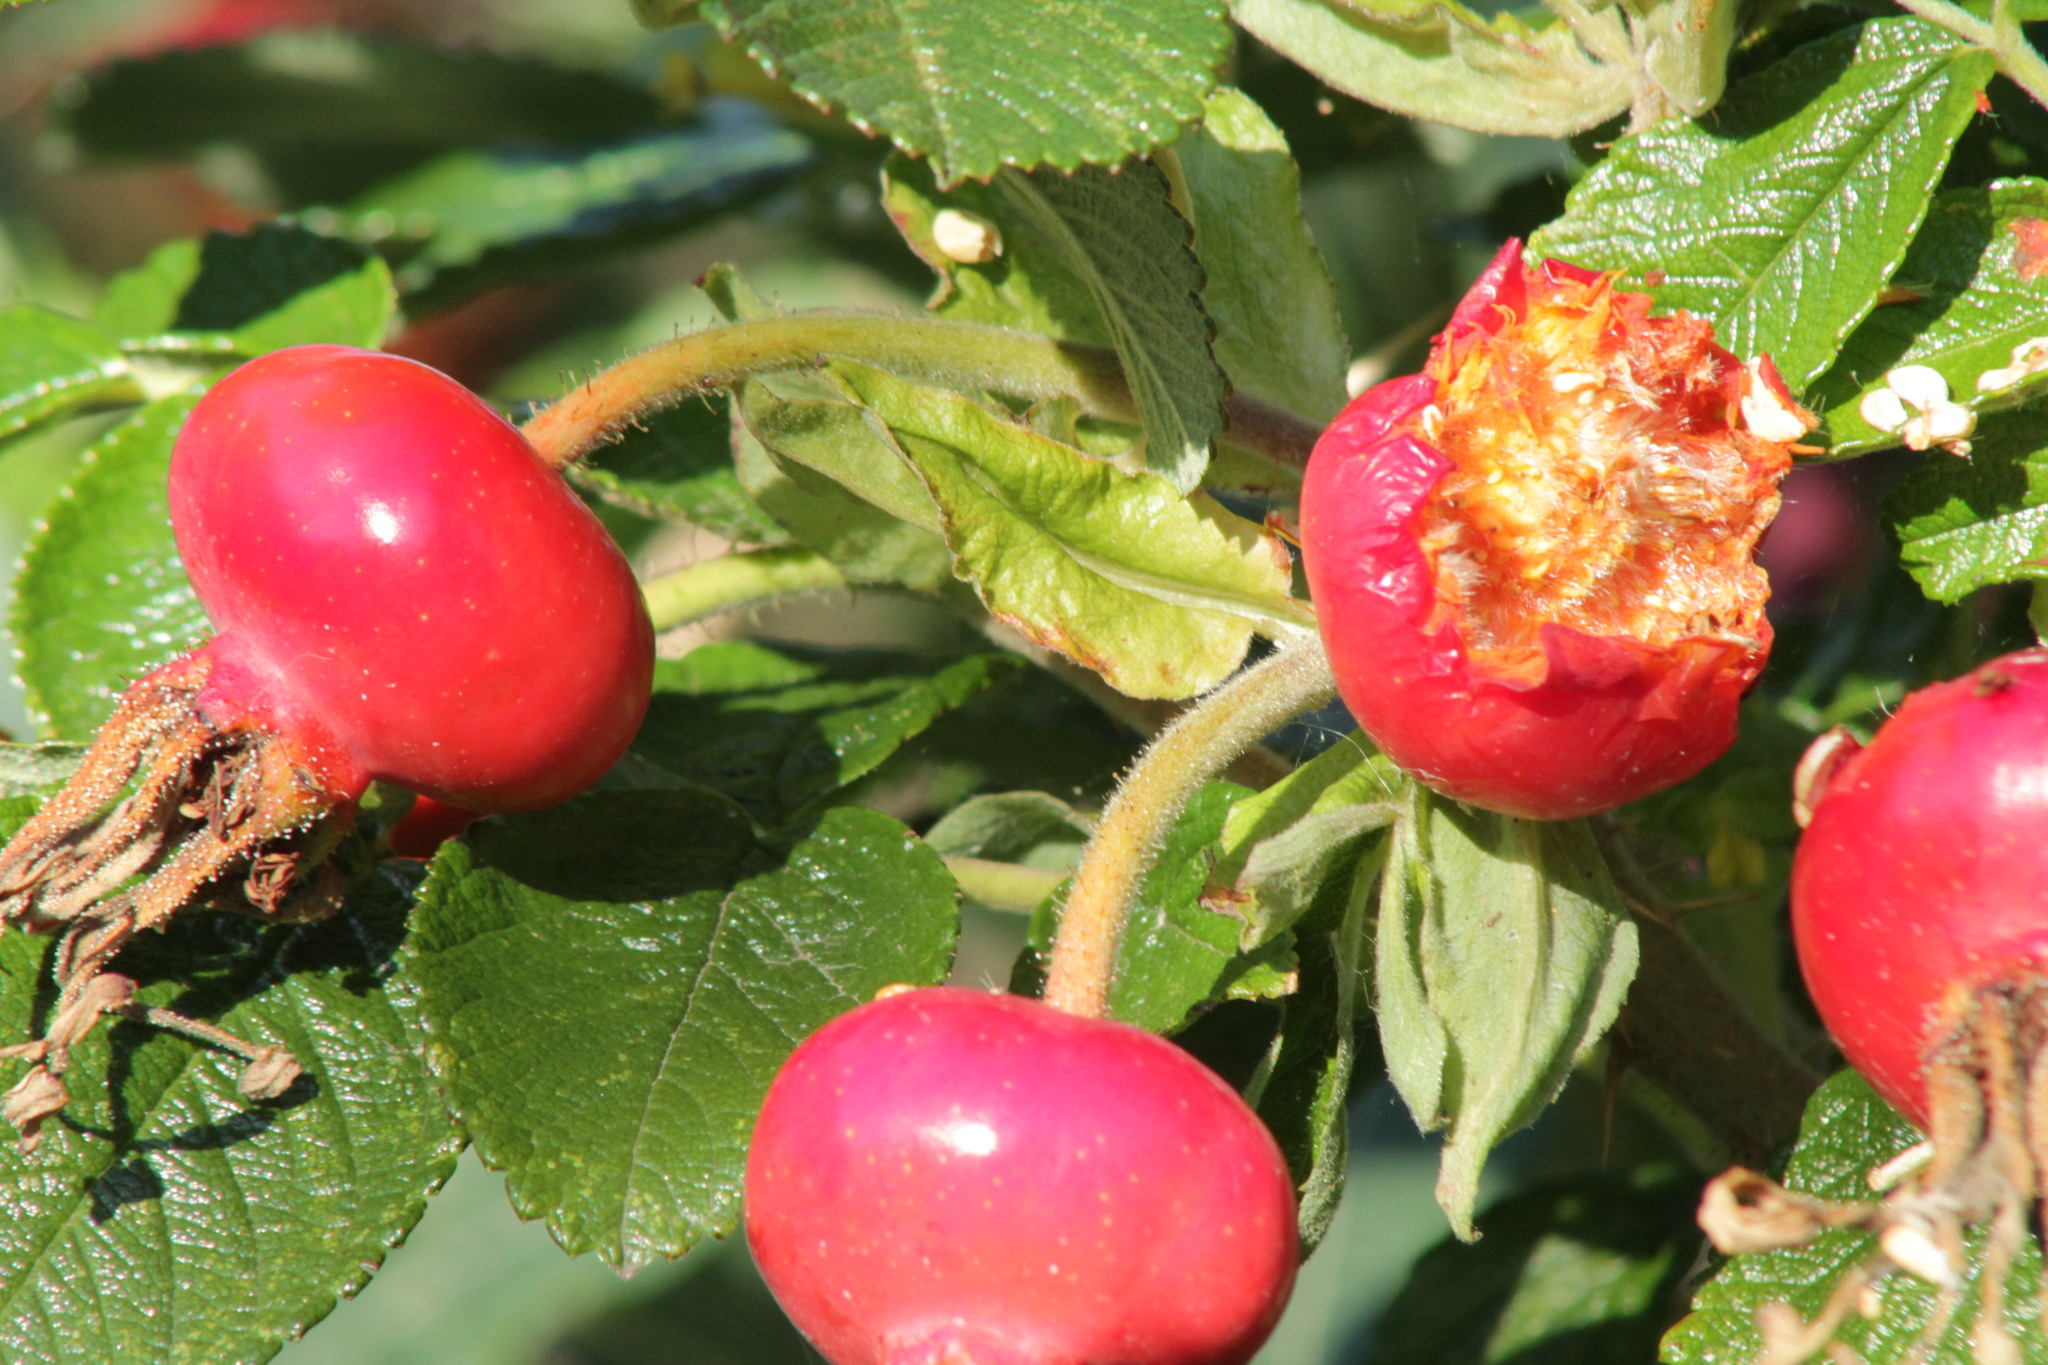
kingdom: Plantae
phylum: Tracheophyta
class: Magnoliopsida
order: Rosales
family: Rosaceae
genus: Rosa
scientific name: Rosa rugosa
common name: Japanese rose
